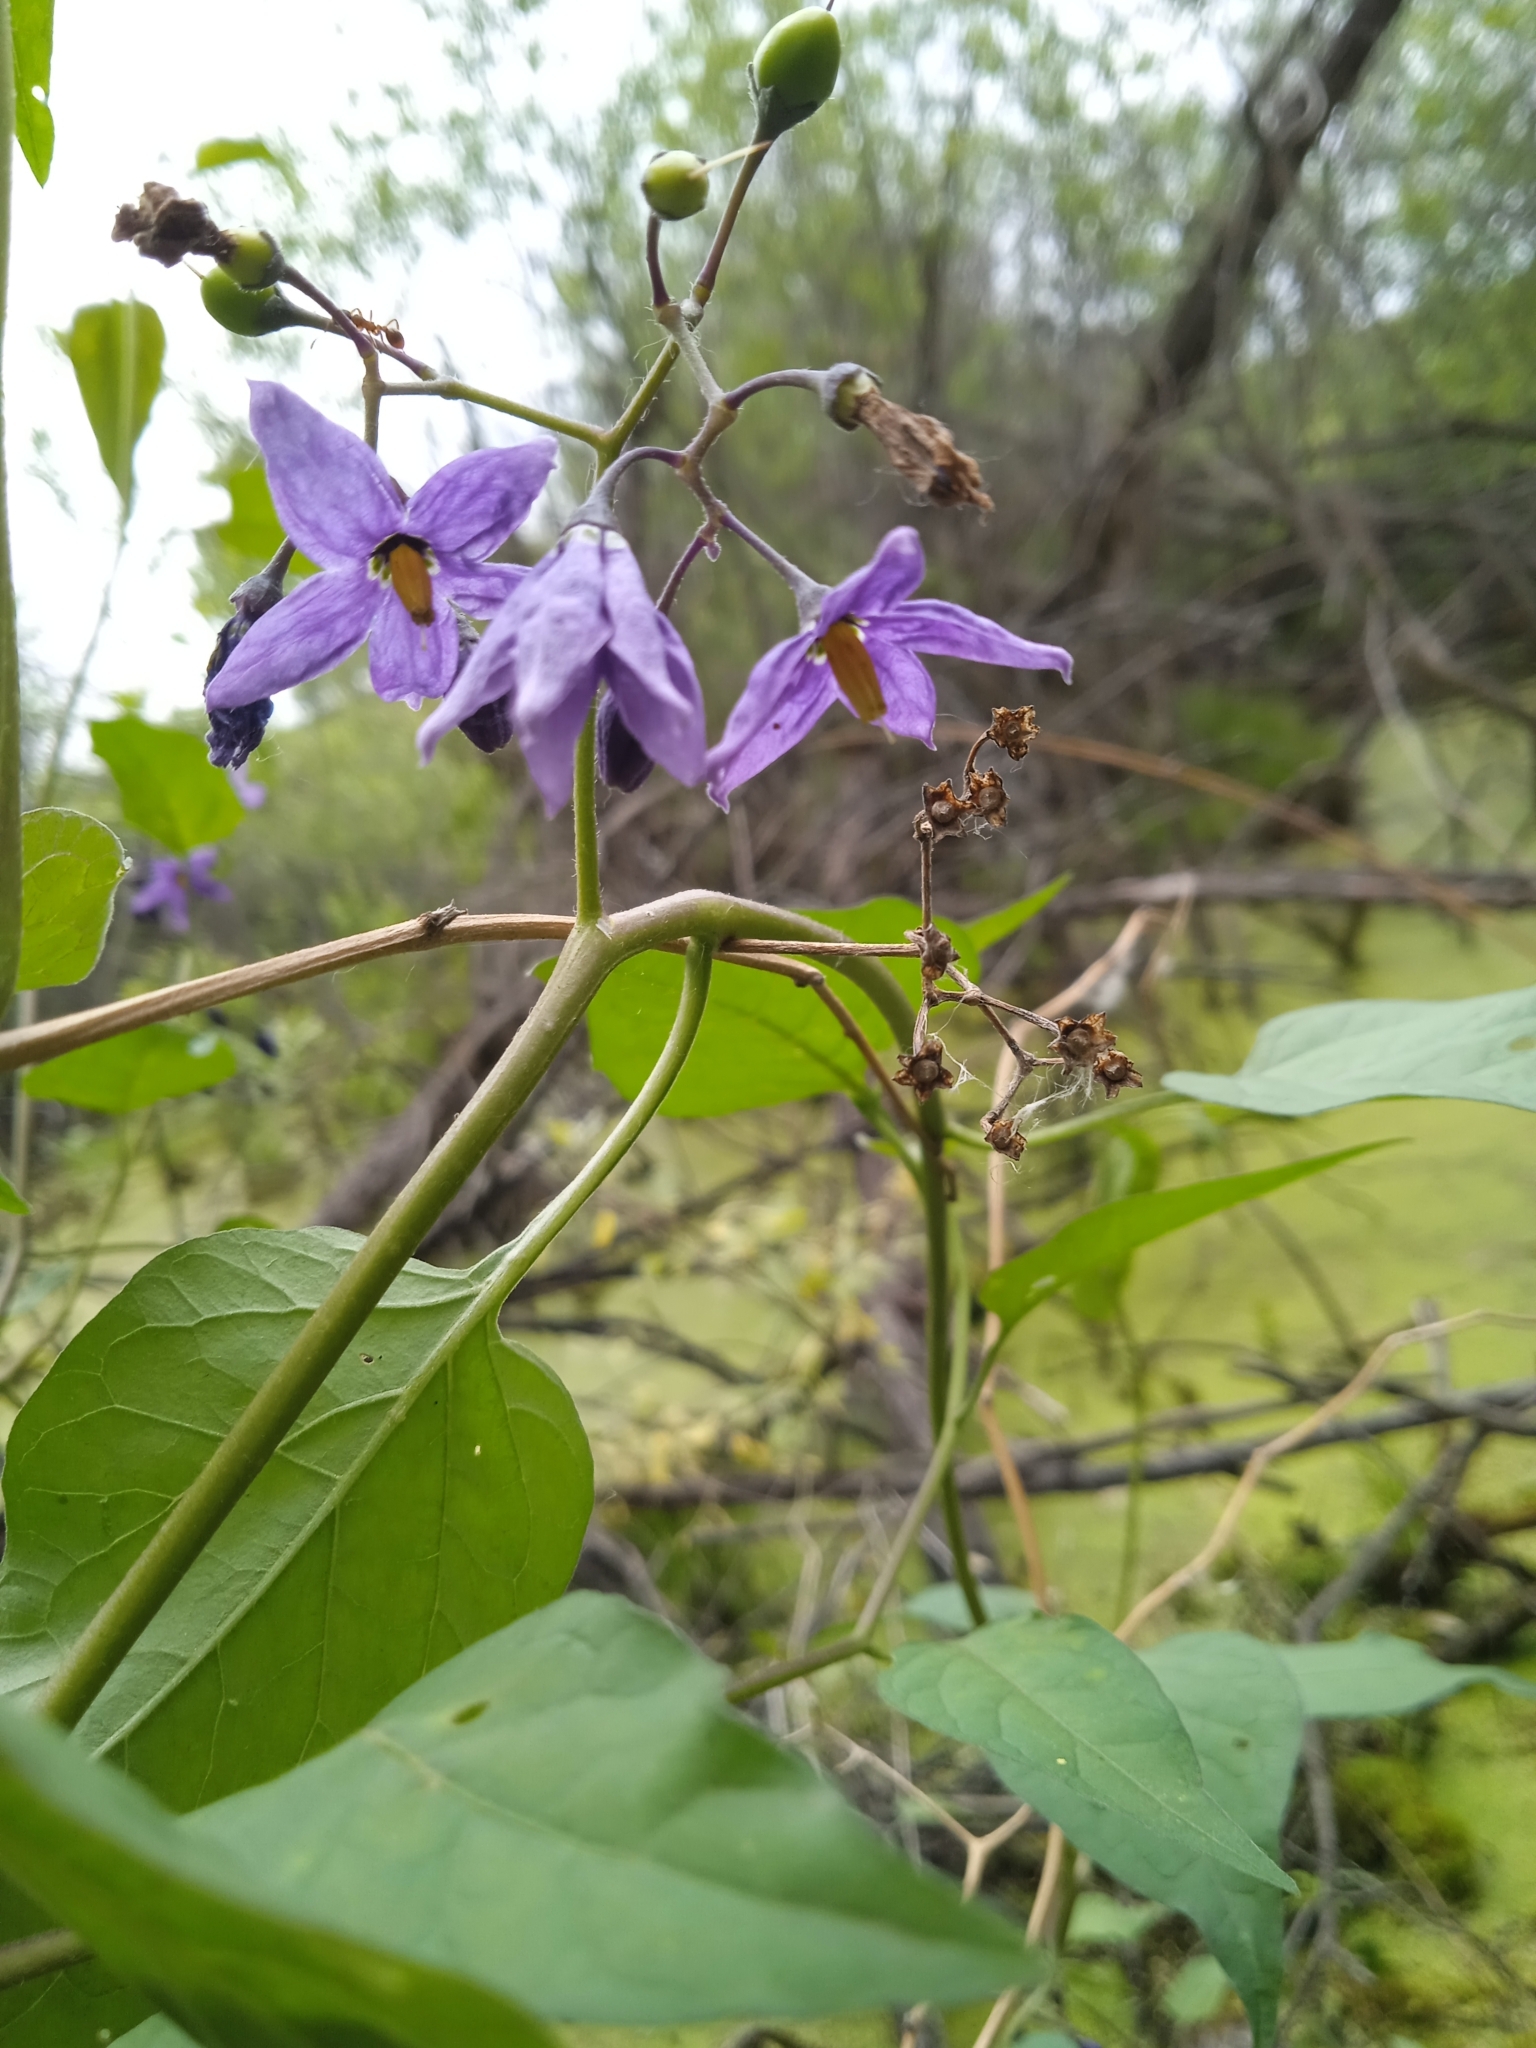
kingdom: Plantae
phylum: Tracheophyta
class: Magnoliopsida
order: Solanales
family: Solanaceae
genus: Solanum
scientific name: Solanum dulcamara
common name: Climbing nightshade
